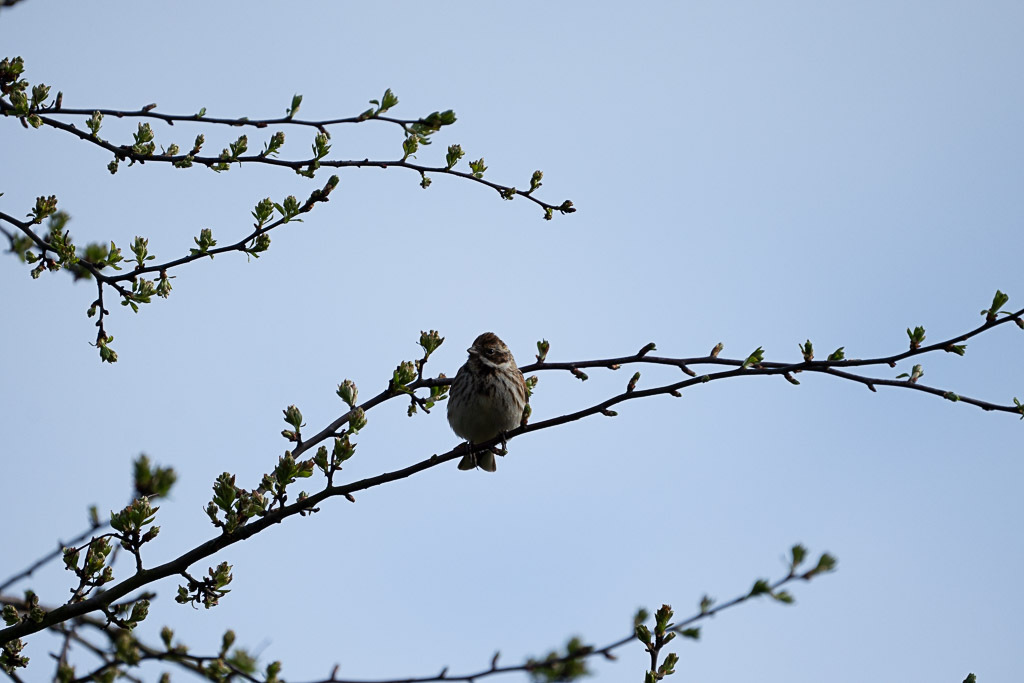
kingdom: Animalia
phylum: Chordata
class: Aves
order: Passeriformes
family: Emberizidae
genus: Emberiza
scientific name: Emberiza schoeniclus
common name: Reed bunting
